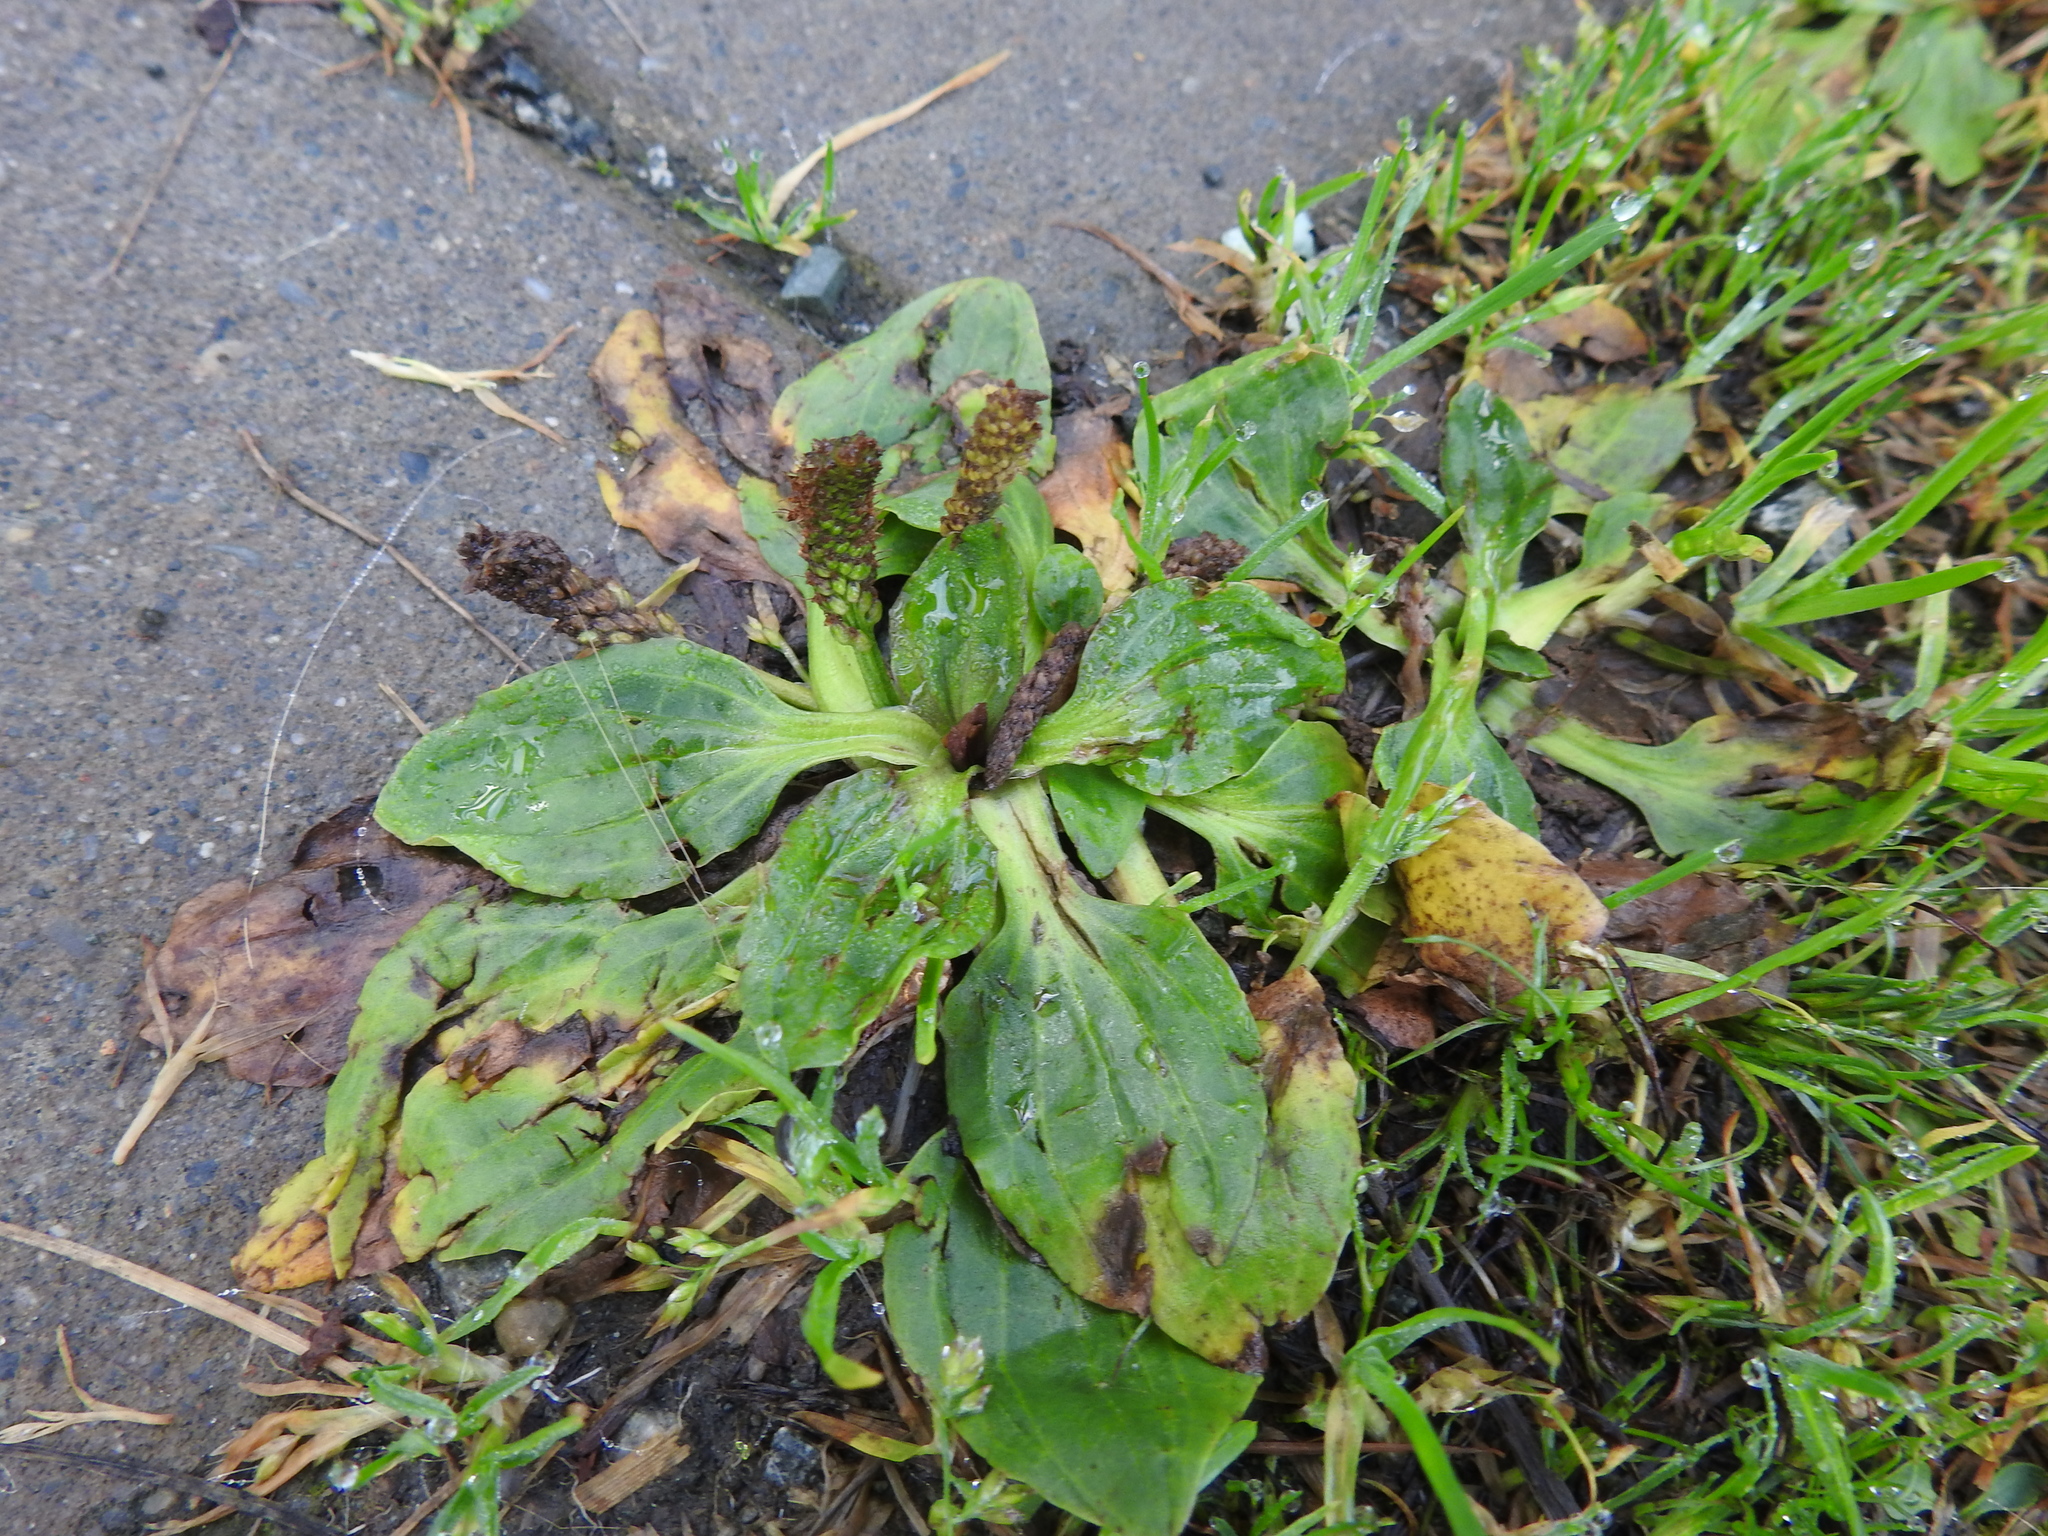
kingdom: Plantae
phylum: Tracheophyta
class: Magnoliopsida
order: Lamiales
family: Plantaginaceae
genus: Plantago
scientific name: Plantago major
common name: Common plantain
